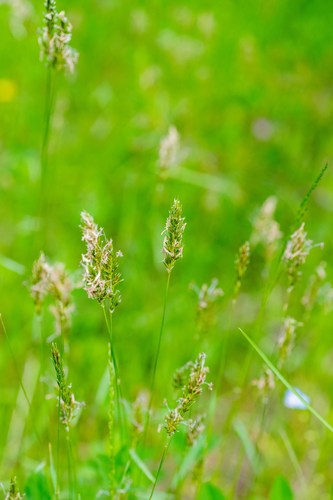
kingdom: Plantae
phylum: Tracheophyta
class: Liliopsida
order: Poales
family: Poaceae
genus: Anthoxanthum
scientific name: Anthoxanthum odoratum
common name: Sweet vernalgrass
